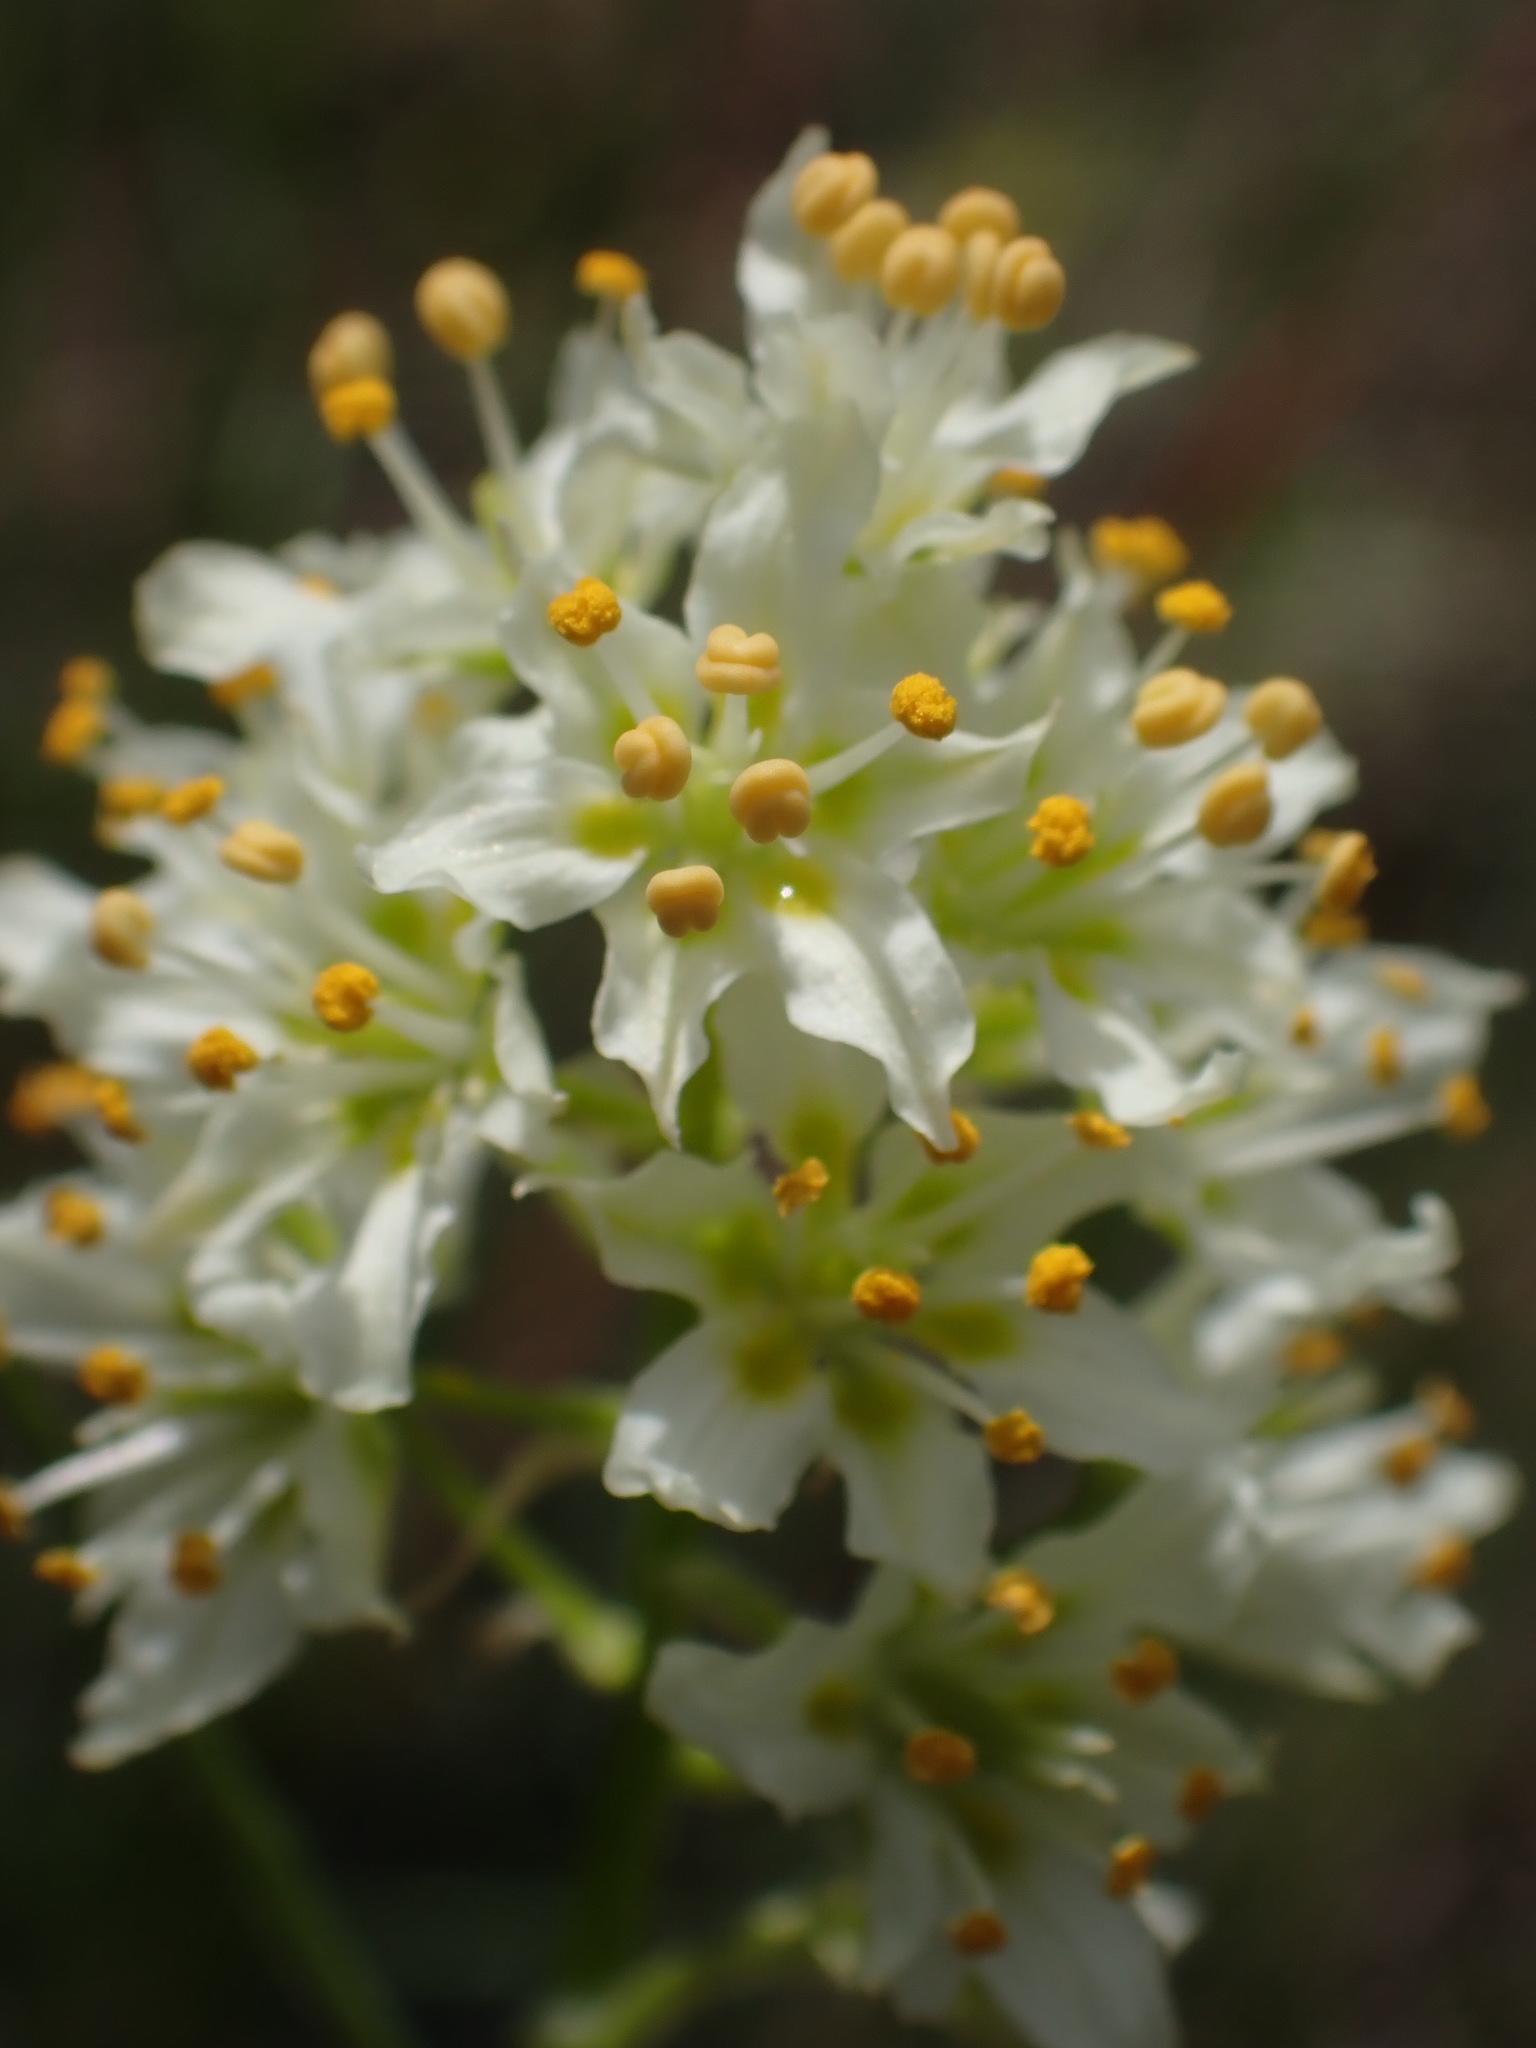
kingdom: Plantae
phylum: Tracheophyta
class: Liliopsida
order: Liliales
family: Melanthiaceae
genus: Toxicoscordion
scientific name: Toxicoscordion venenosum
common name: Meadow death camas
